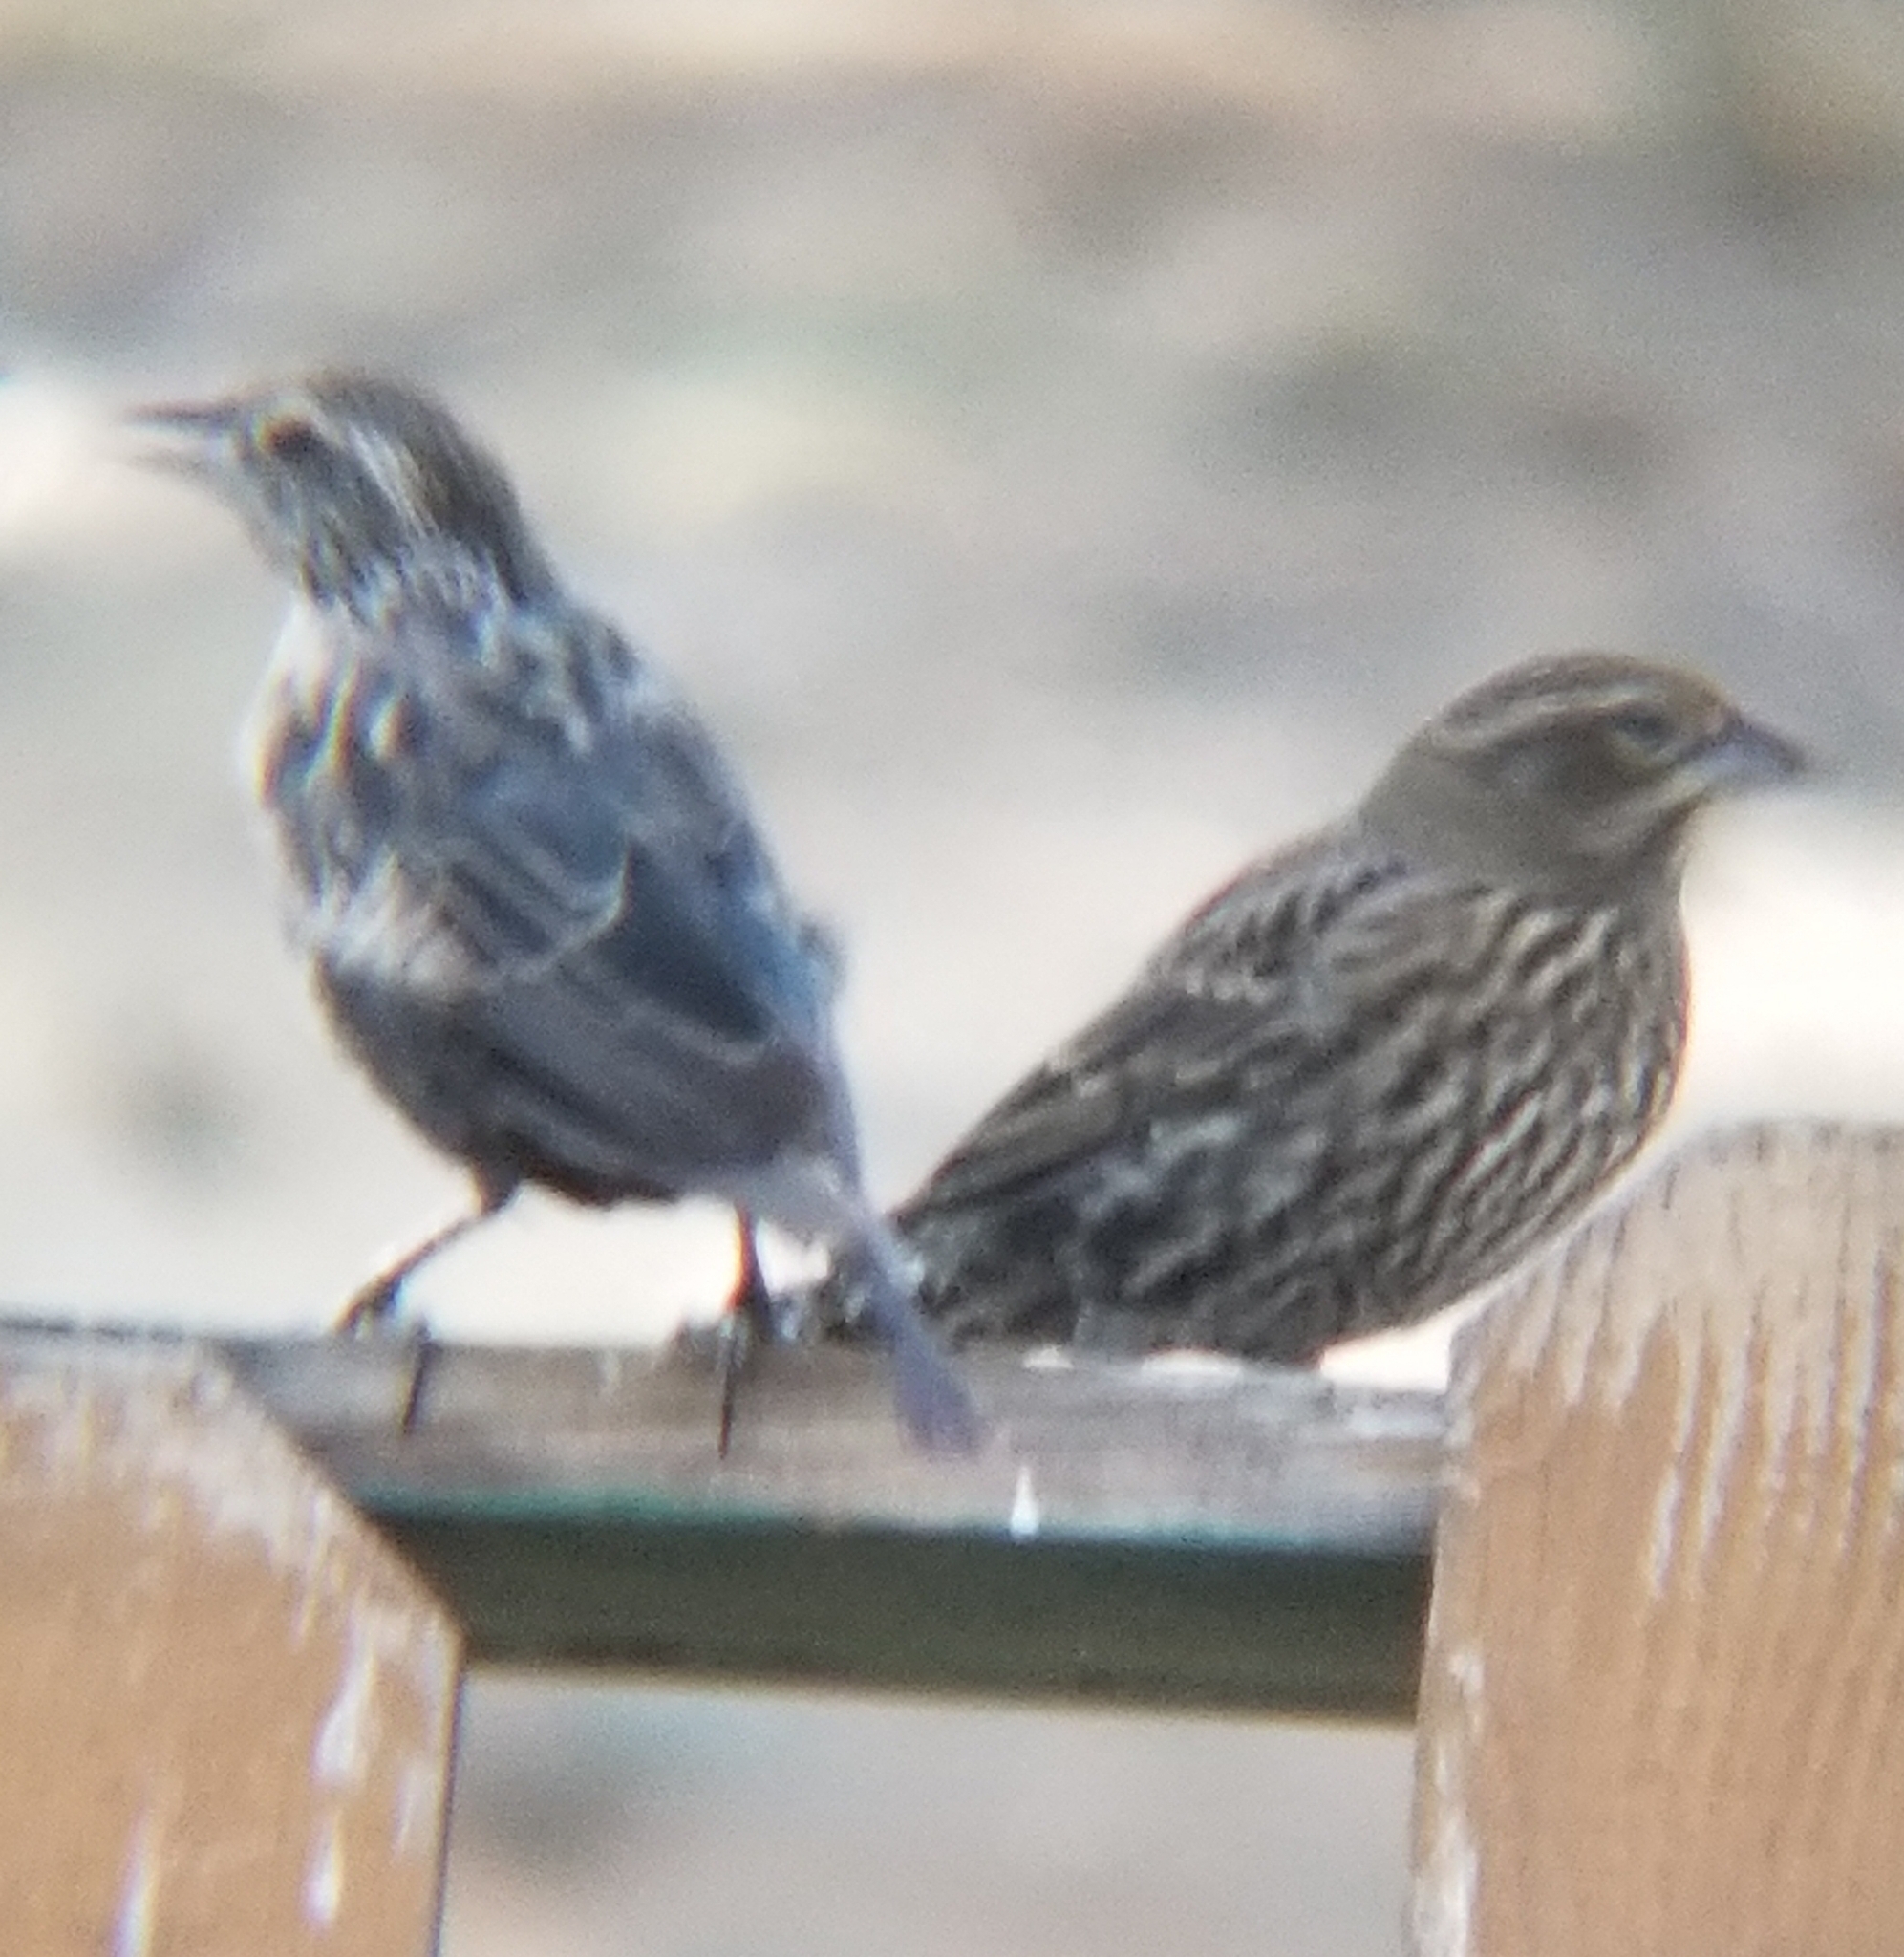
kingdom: Animalia
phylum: Chordata
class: Aves
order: Passeriformes
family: Icteridae
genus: Agelaius
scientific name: Agelaius phoeniceus
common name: Red-winged blackbird
